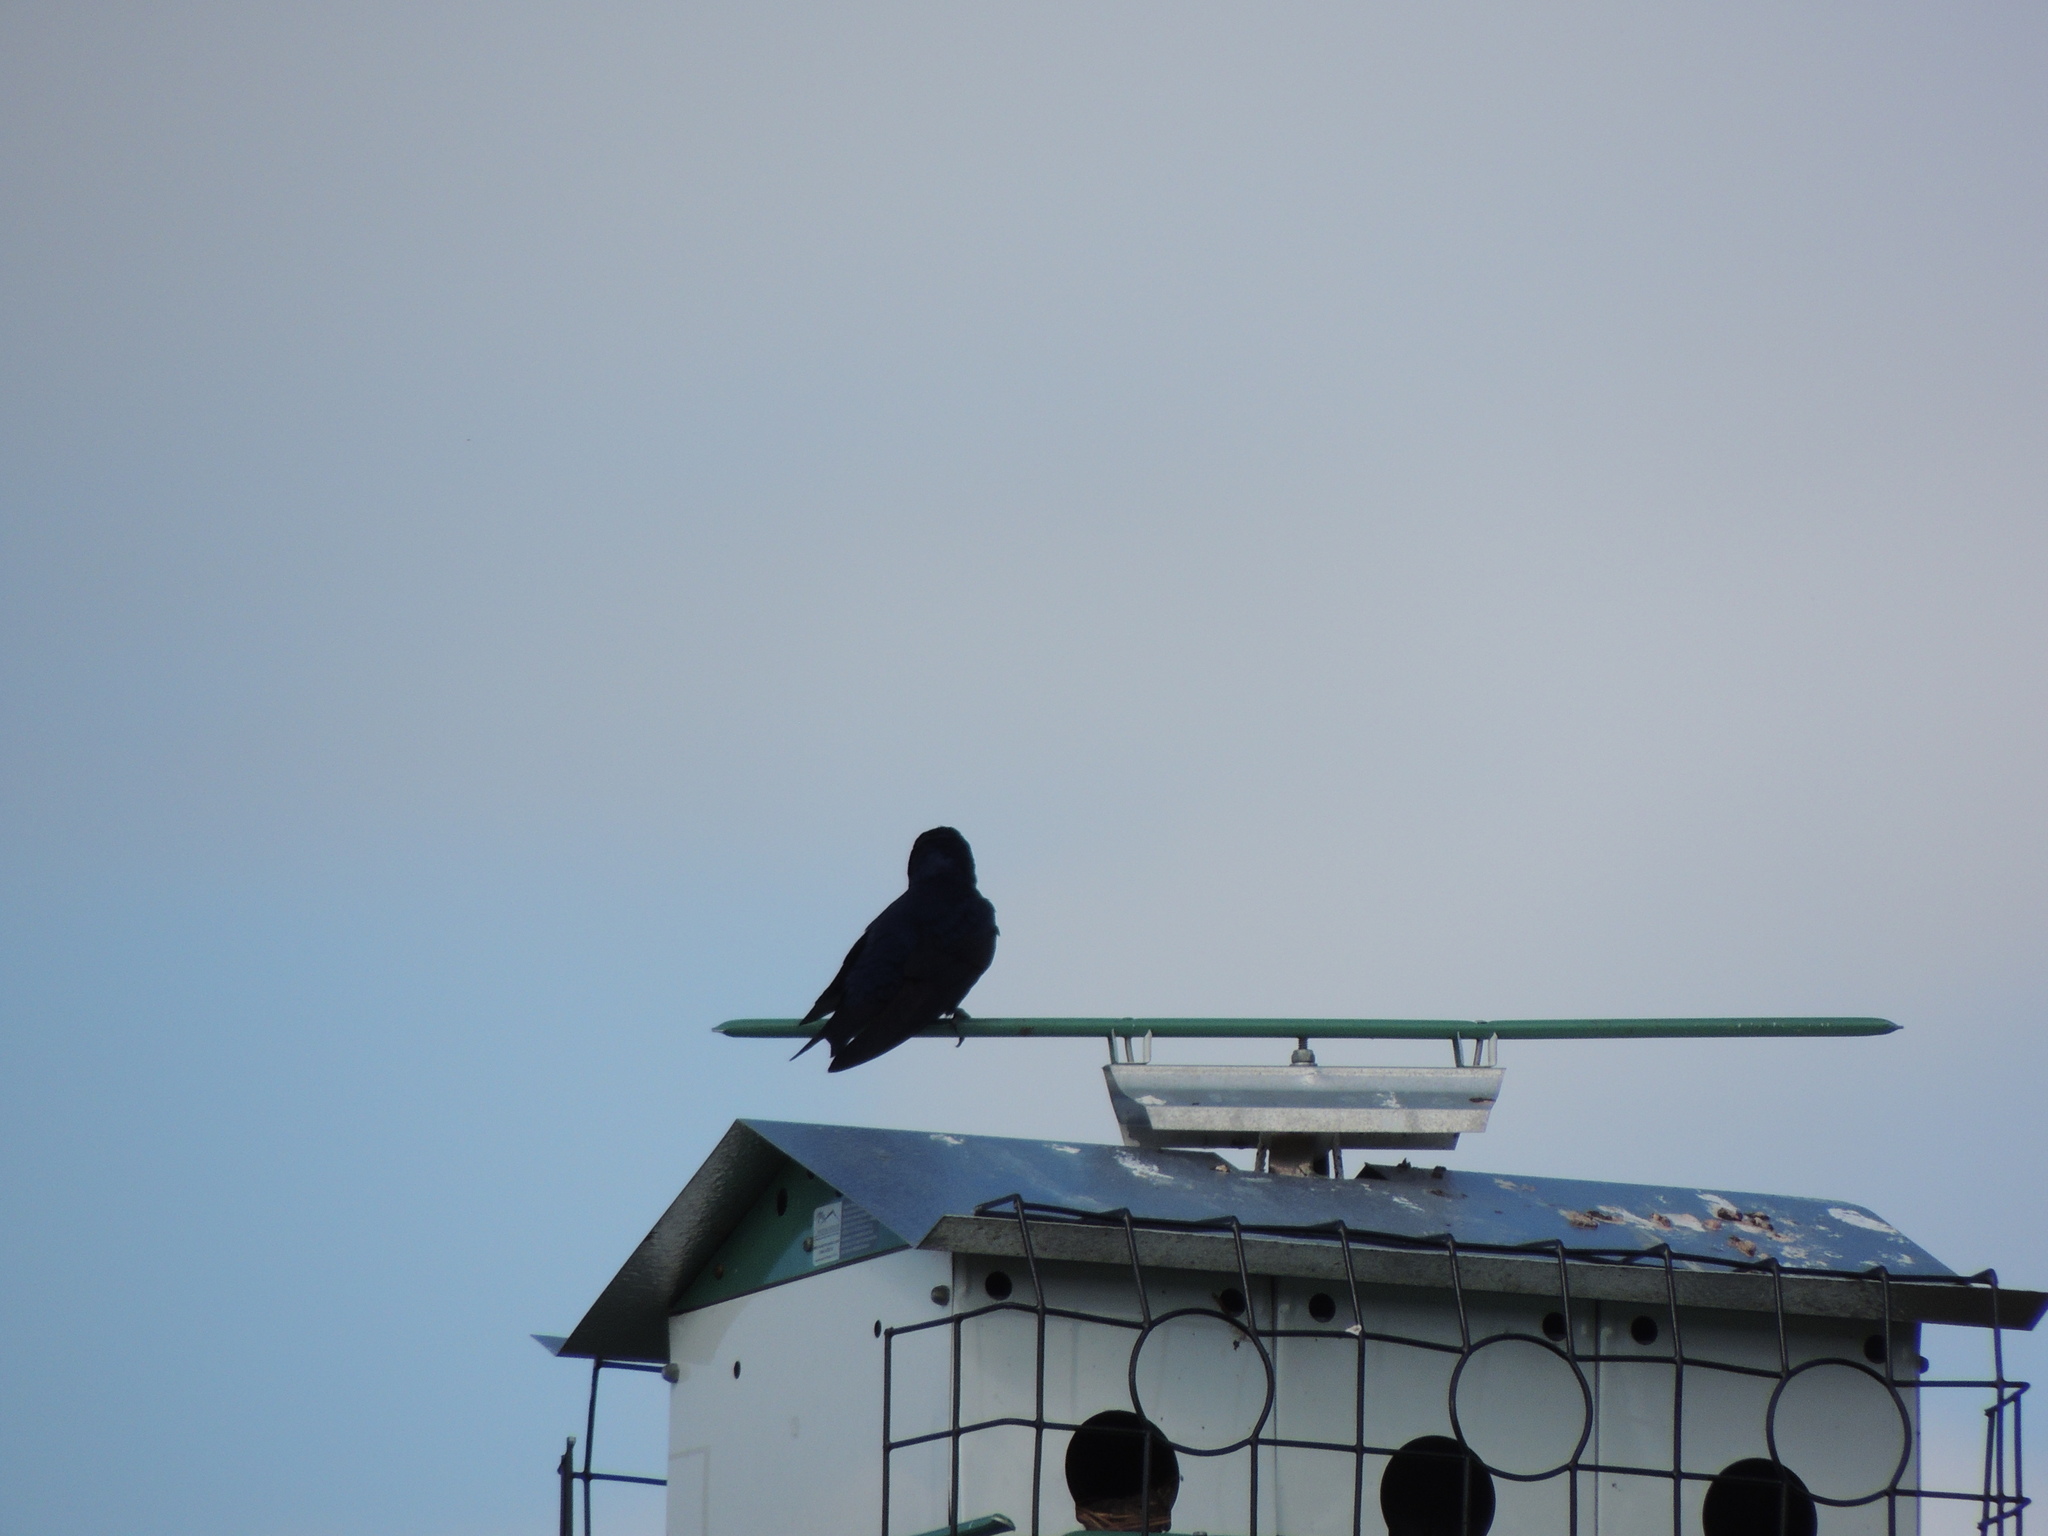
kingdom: Animalia
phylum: Chordata
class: Aves
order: Passeriformes
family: Hirundinidae
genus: Progne
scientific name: Progne subis
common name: Purple martin
